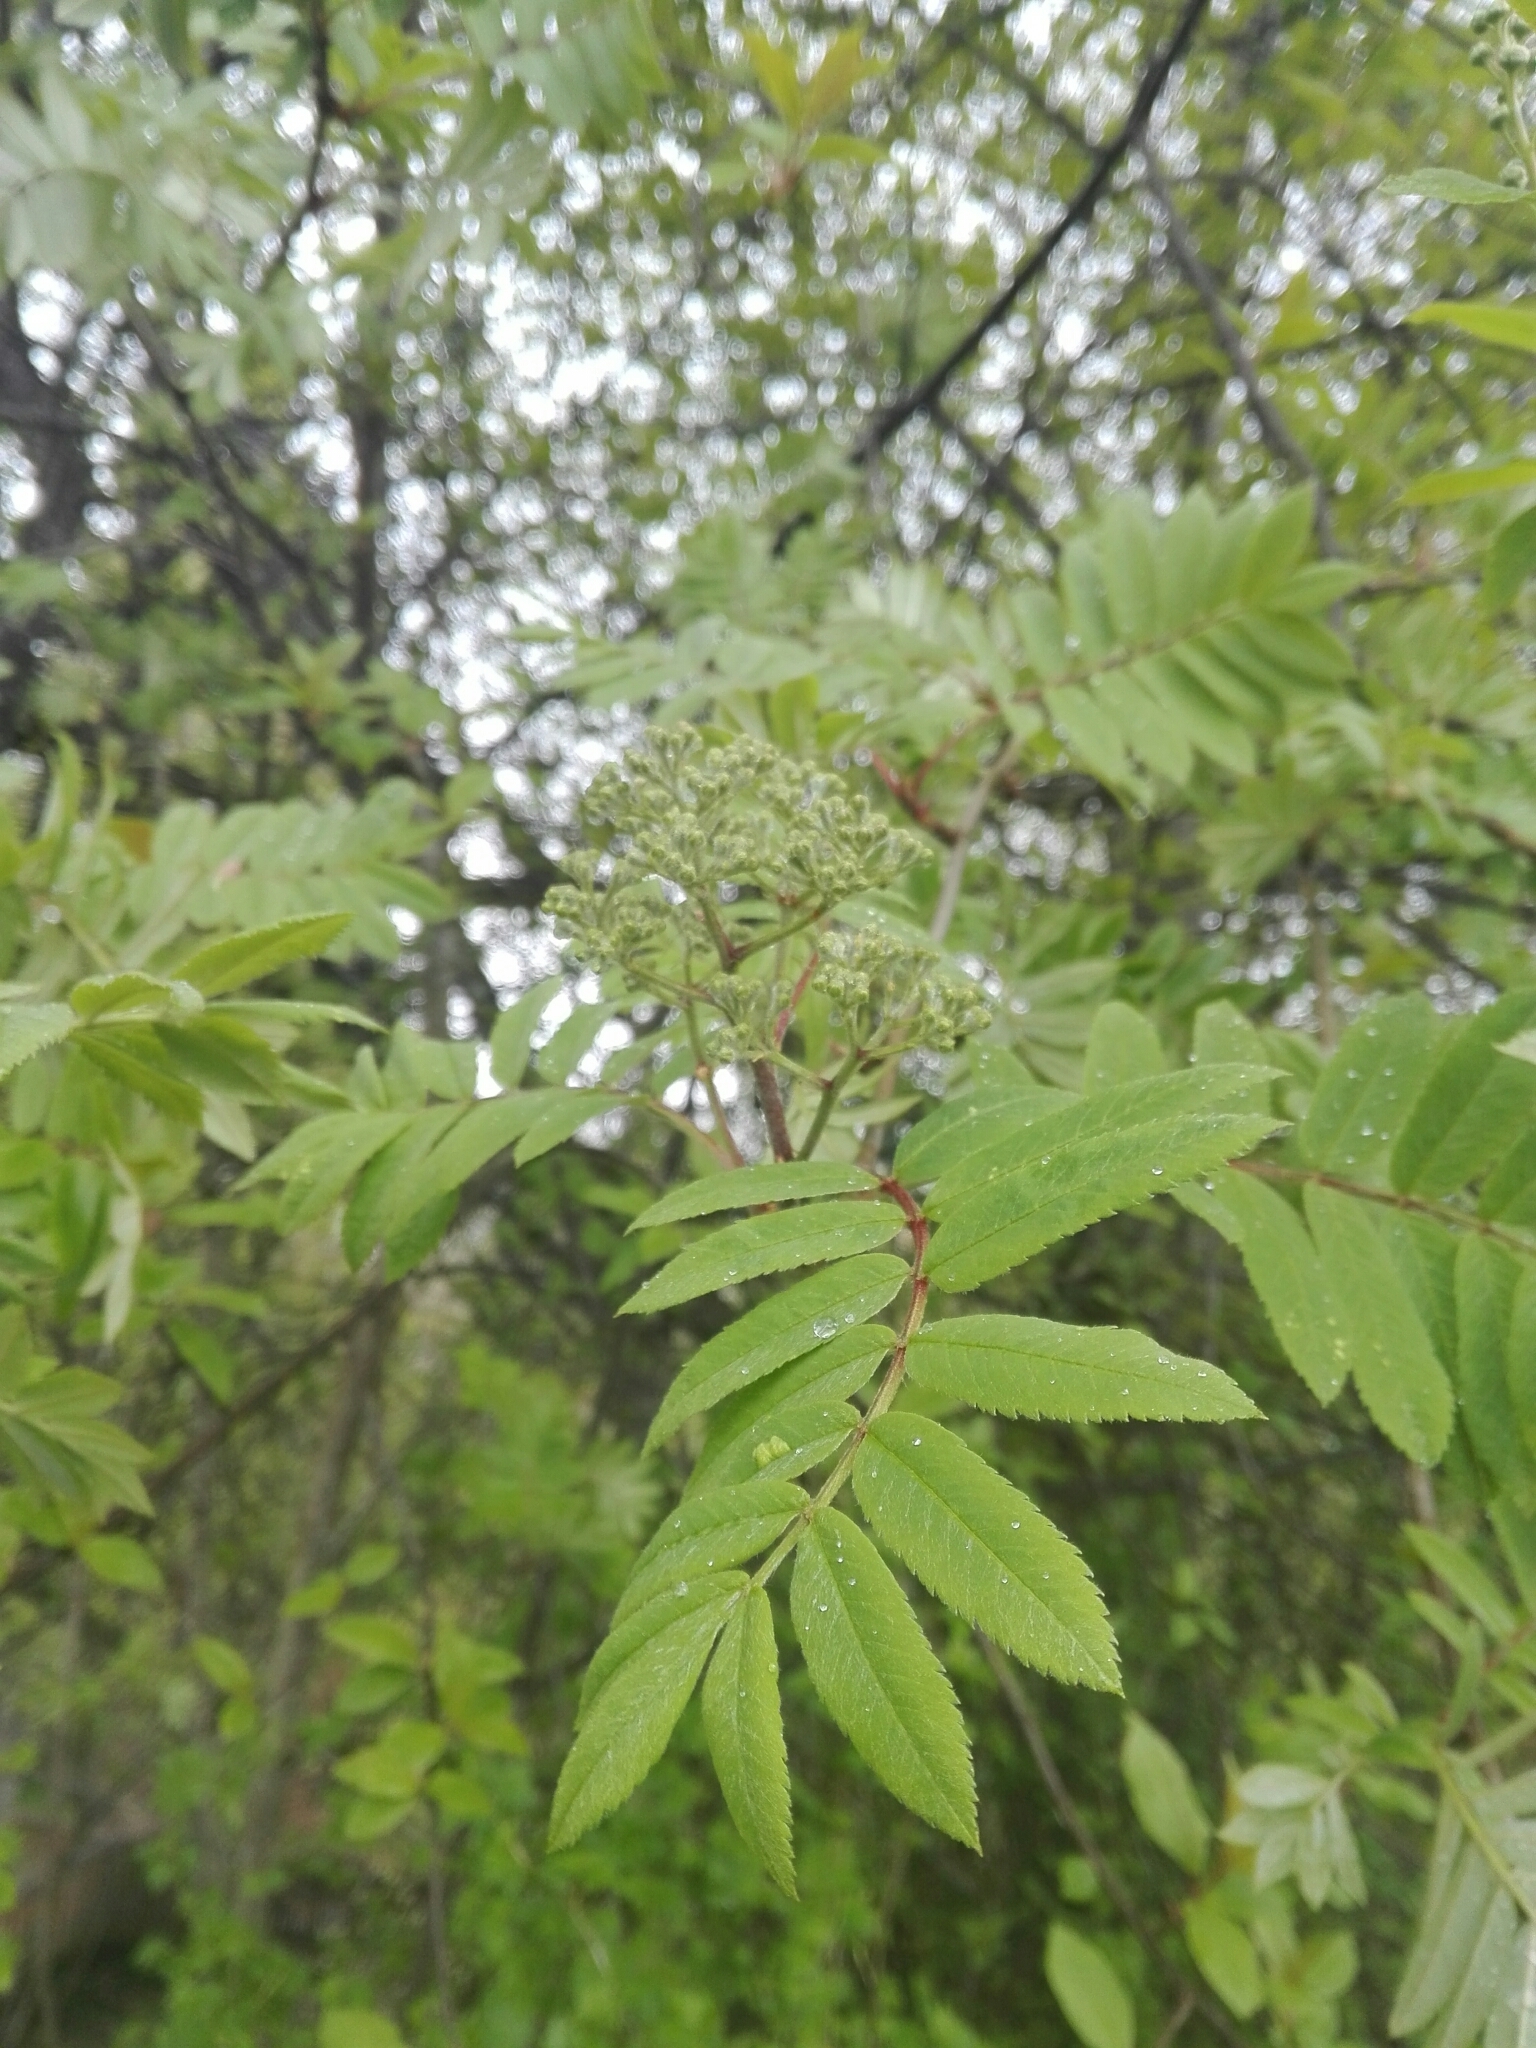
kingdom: Plantae
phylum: Tracheophyta
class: Magnoliopsida
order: Rosales
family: Rosaceae
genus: Sorbus
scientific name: Sorbus aucuparia
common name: Rowan
